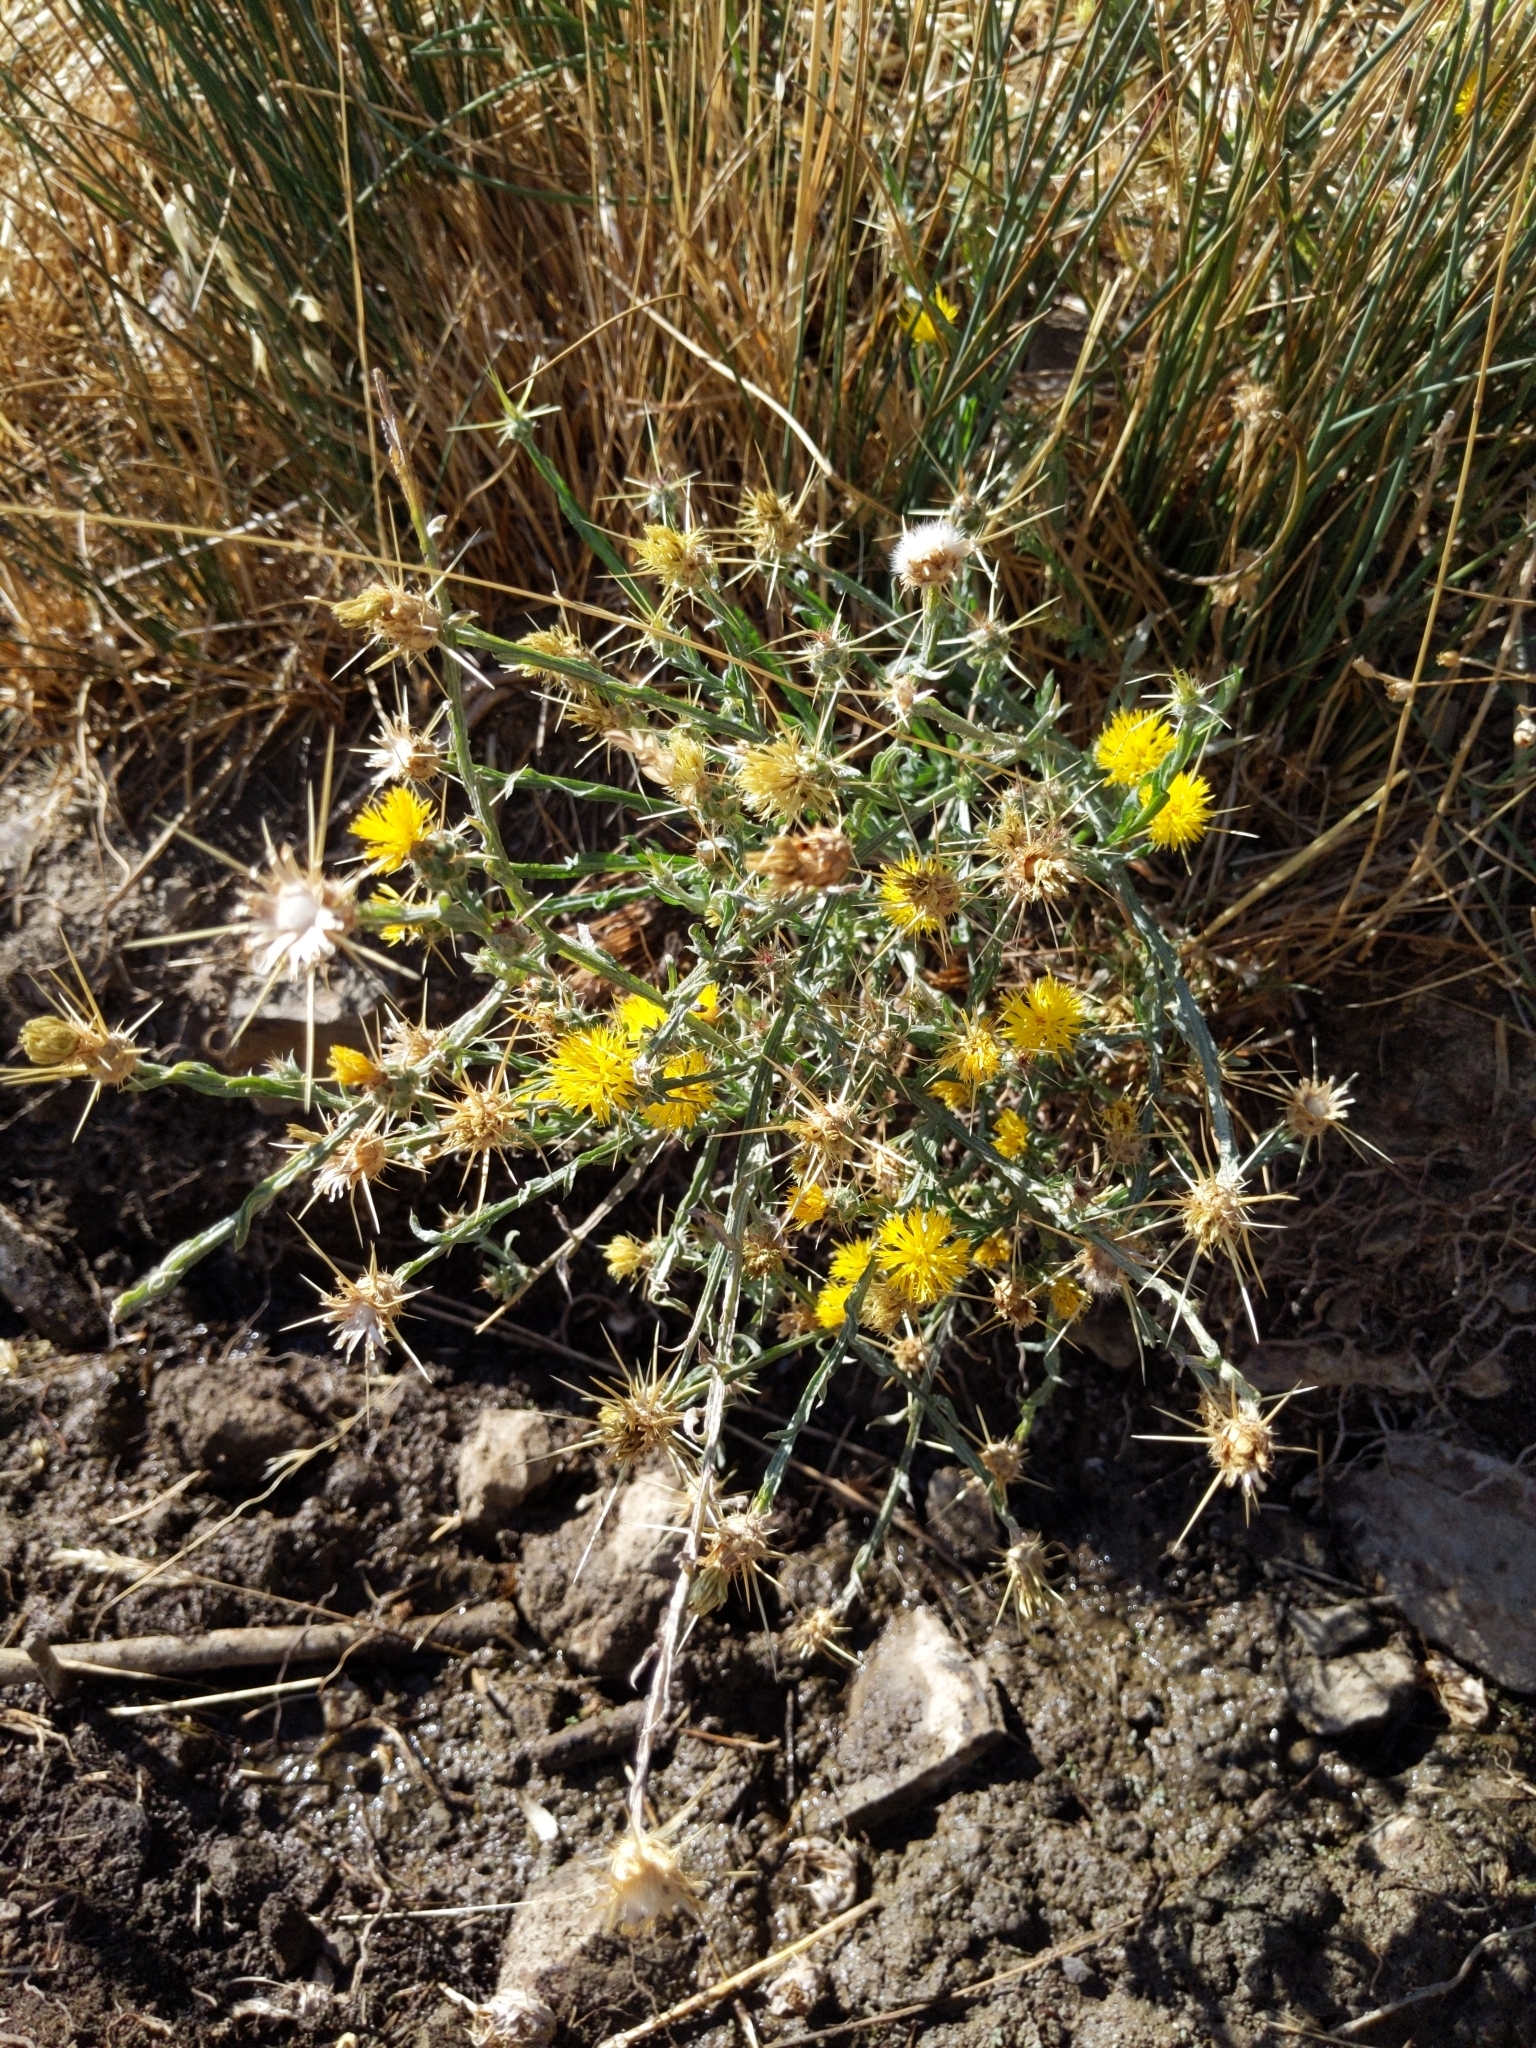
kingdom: Plantae
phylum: Tracheophyta
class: Magnoliopsida
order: Asterales
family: Asteraceae
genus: Centaurea
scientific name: Centaurea solstitialis
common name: Yellow star-thistle
